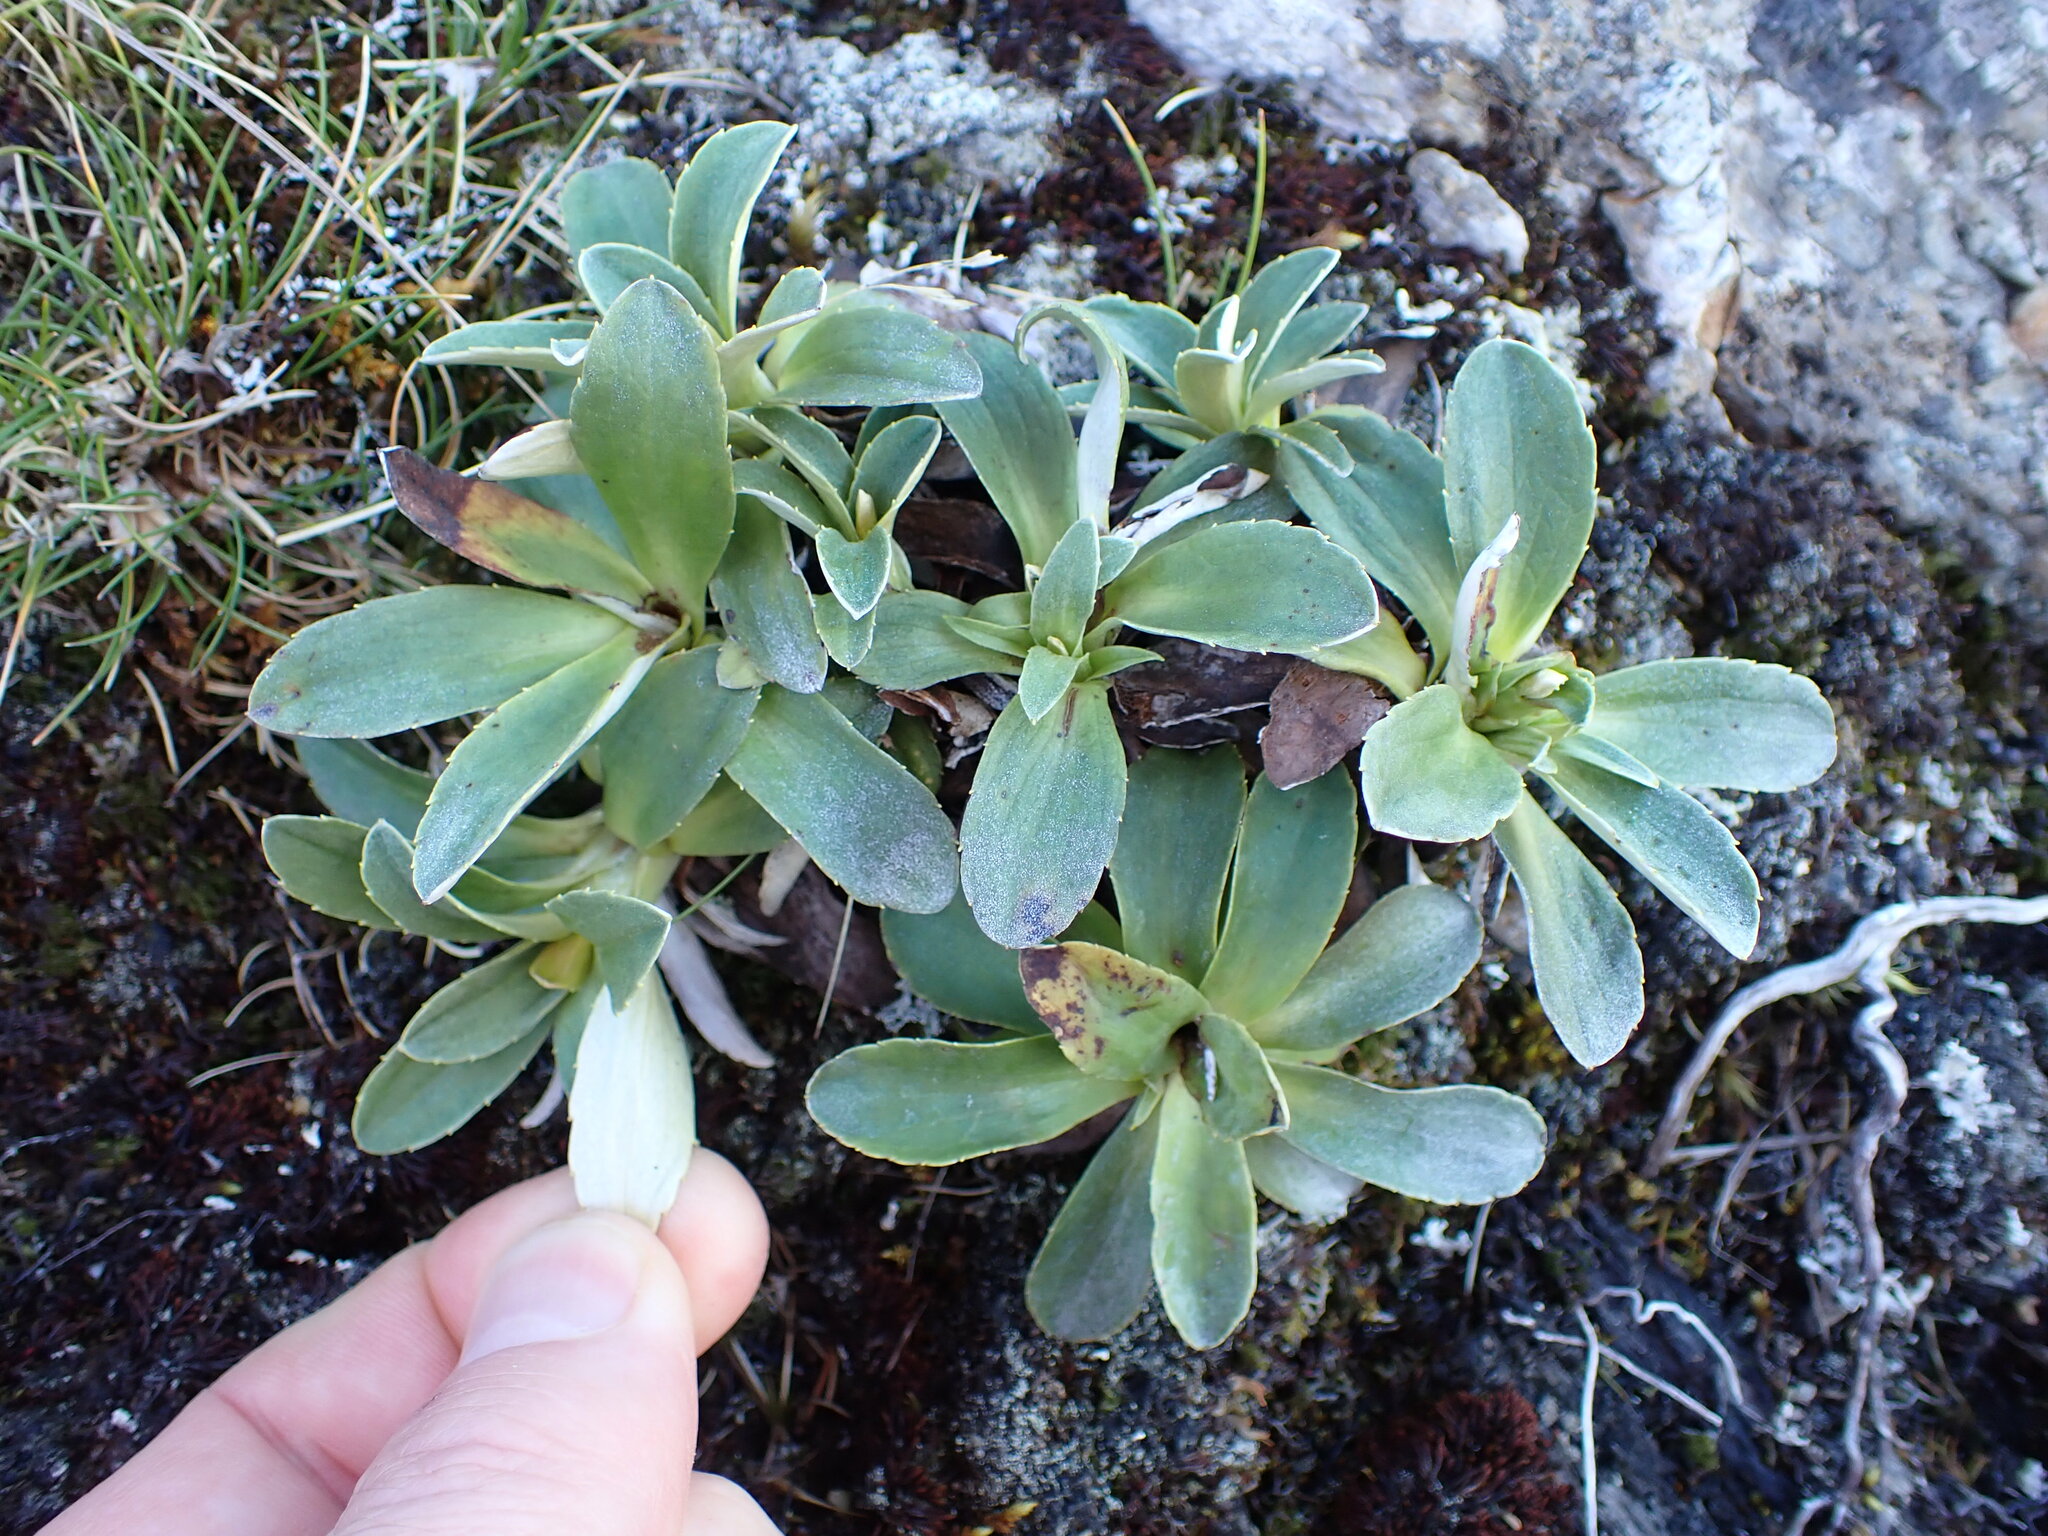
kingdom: Plantae
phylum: Tracheophyta
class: Magnoliopsida
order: Asterales
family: Asteraceae
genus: Celmisia
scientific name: Celmisia hieraciifolia
